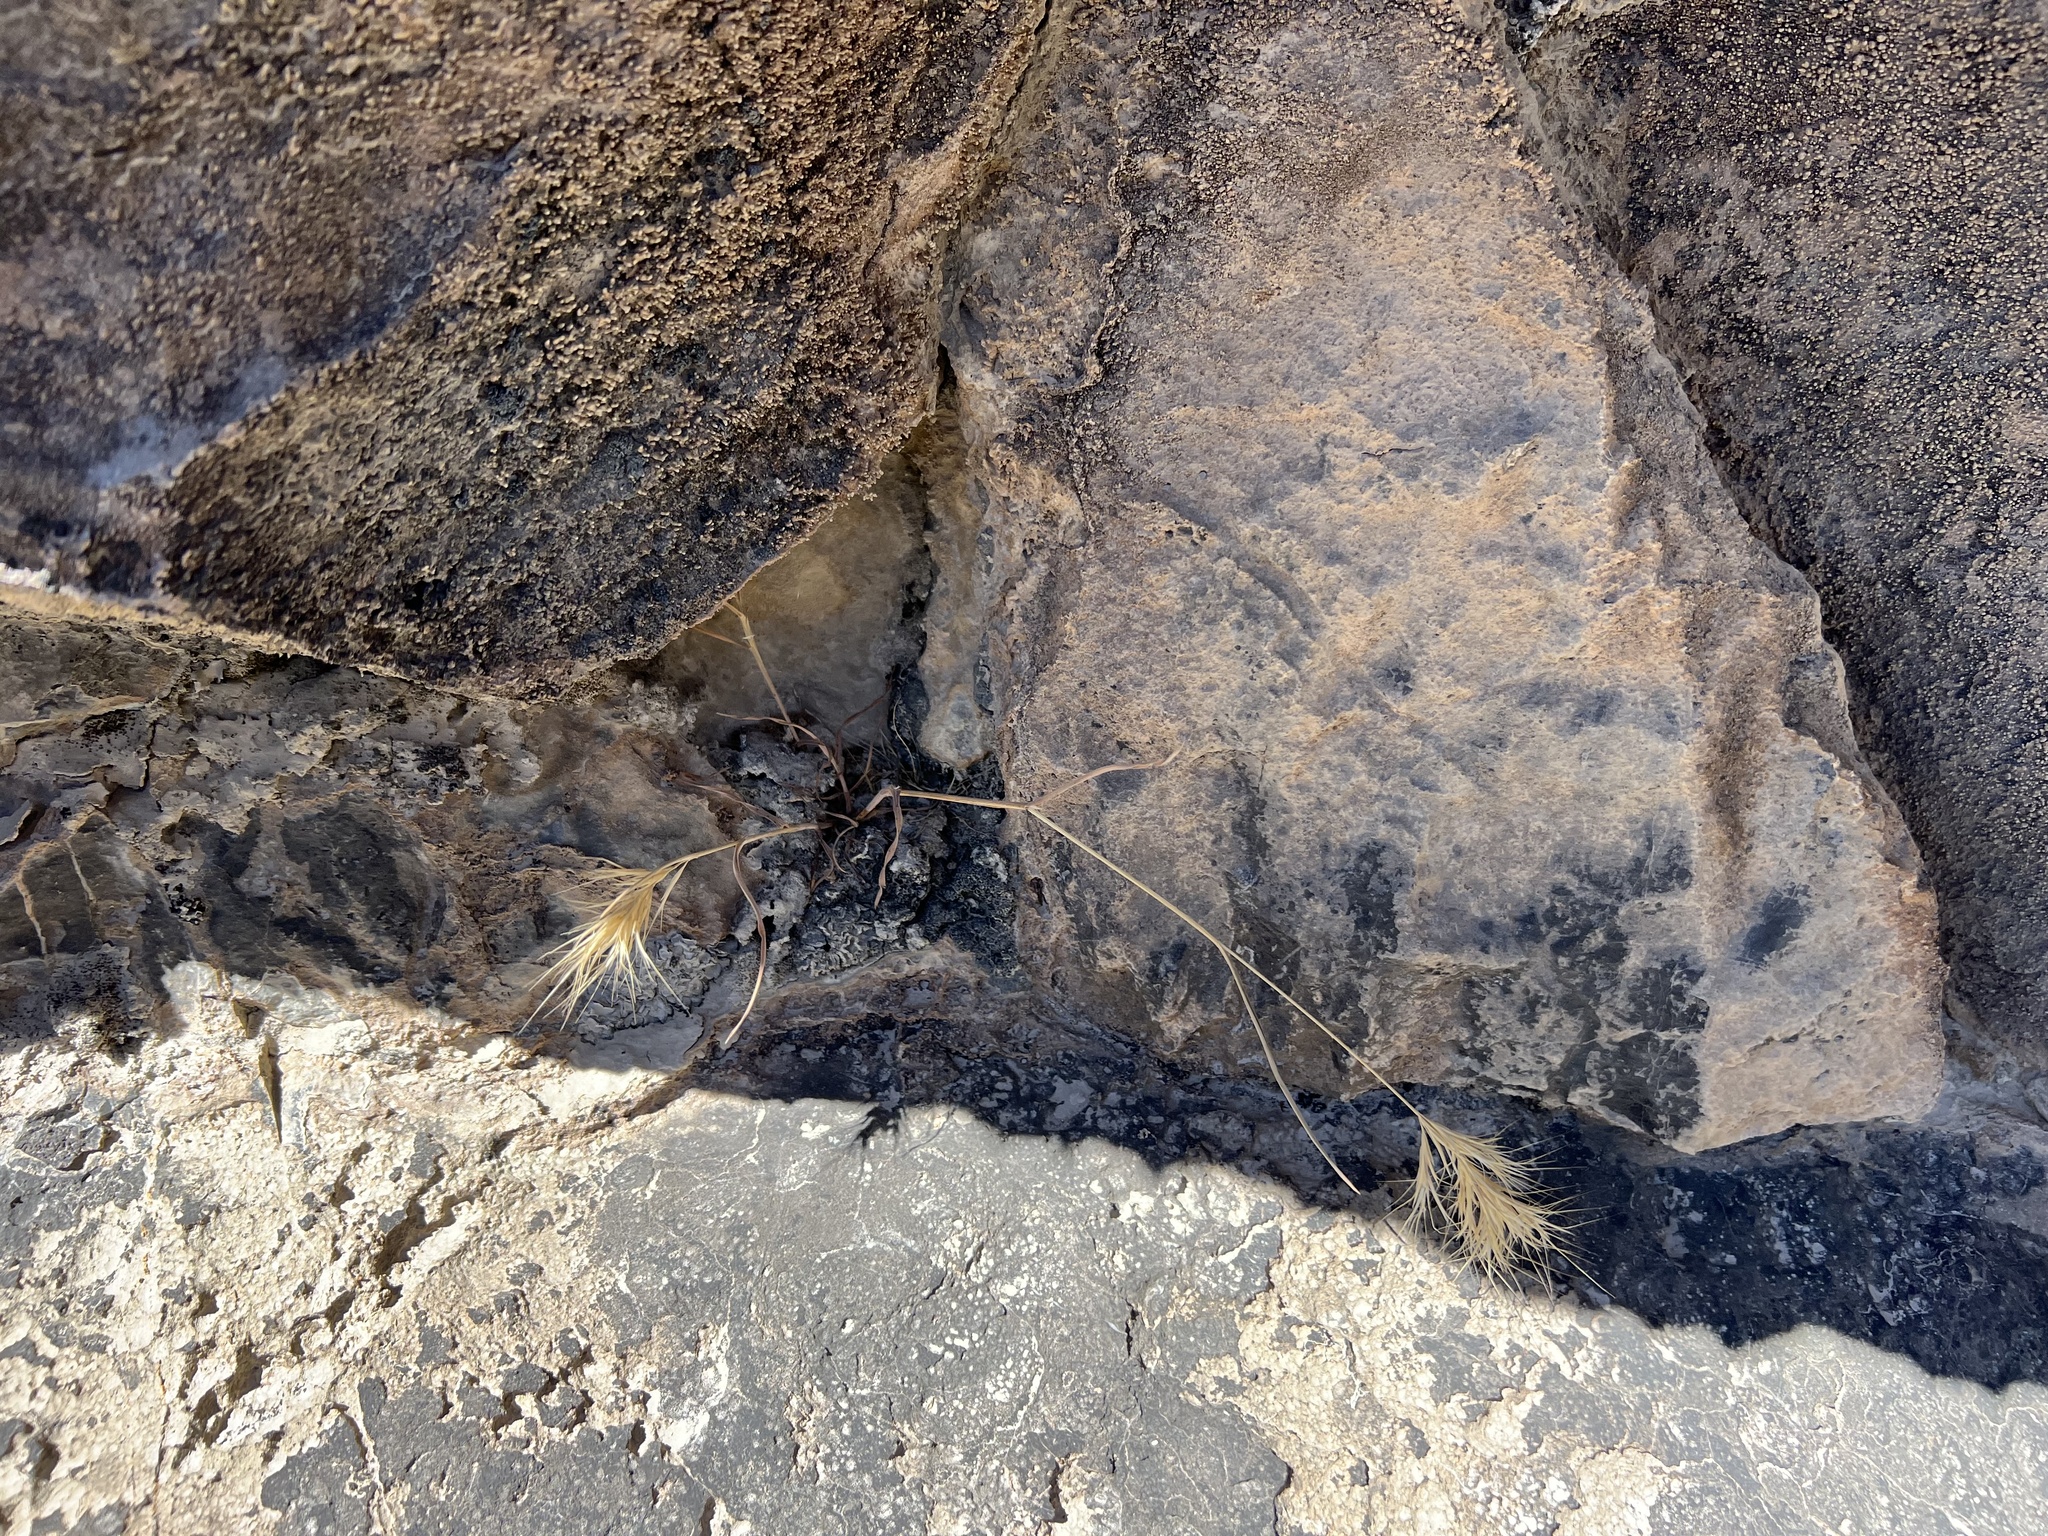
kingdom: Plantae
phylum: Tracheophyta
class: Polypodiopsida
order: Polypodiales
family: Pteridaceae
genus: Myriopteris
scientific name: Myriopteris parryi
